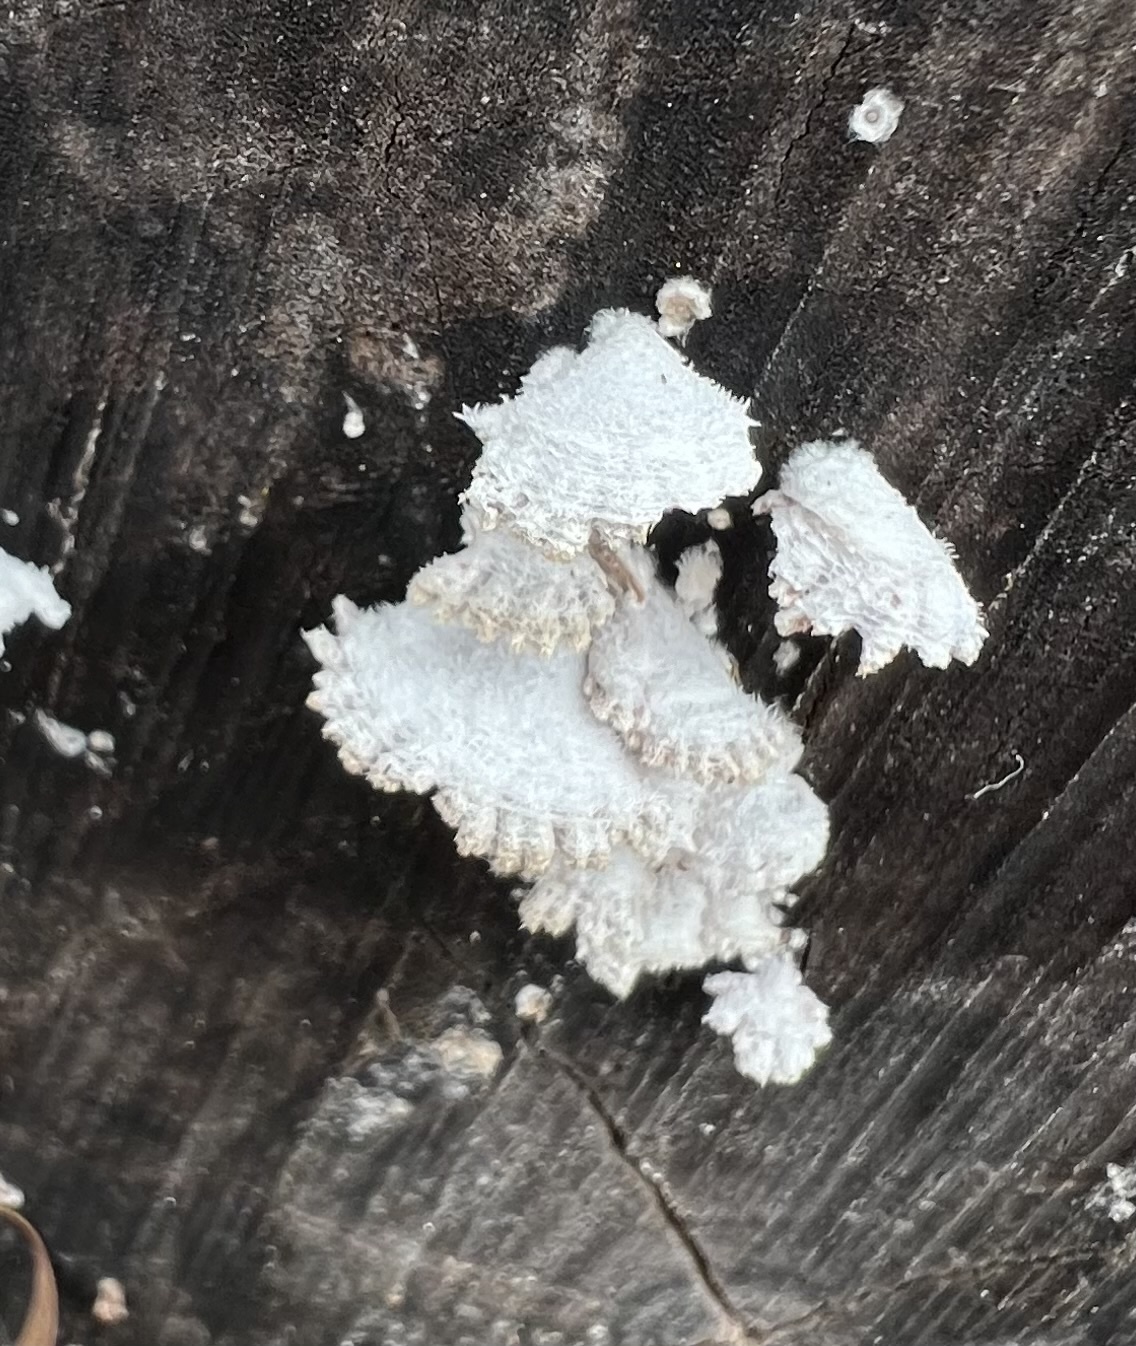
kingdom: Fungi
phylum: Basidiomycota
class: Agaricomycetes
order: Agaricales
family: Schizophyllaceae
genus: Schizophyllum
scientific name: Schizophyllum commune
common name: Common porecrust
